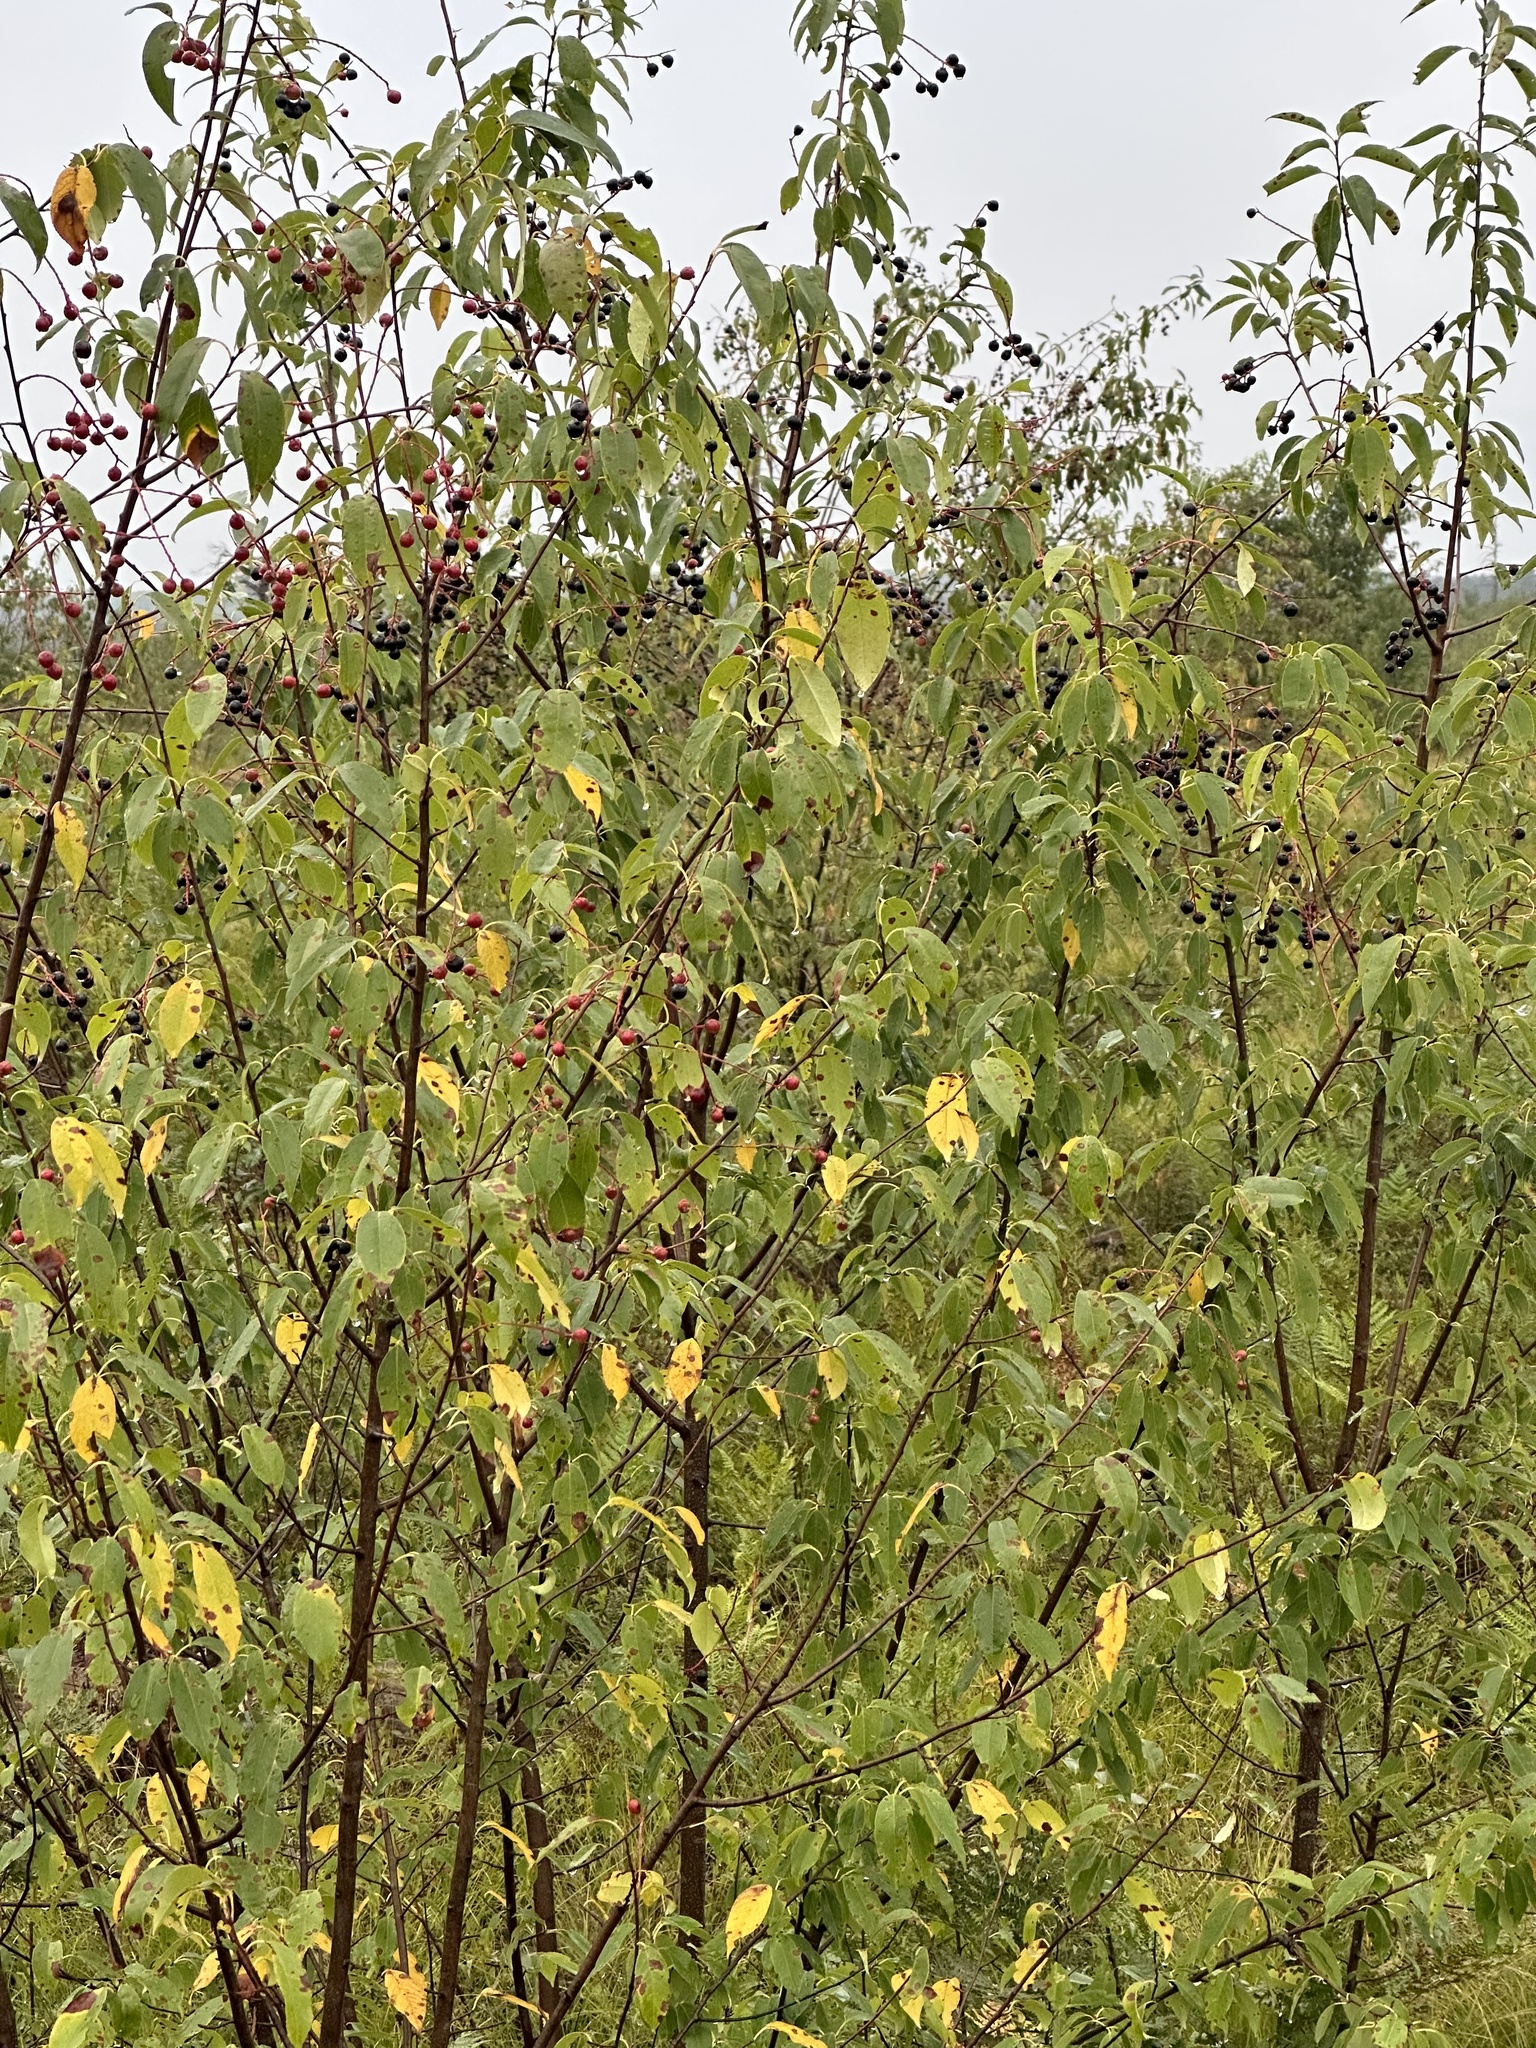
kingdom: Plantae
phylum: Tracheophyta
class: Magnoliopsida
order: Rosales
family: Rosaceae
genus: Prunus
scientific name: Prunus serotina
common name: Black cherry
